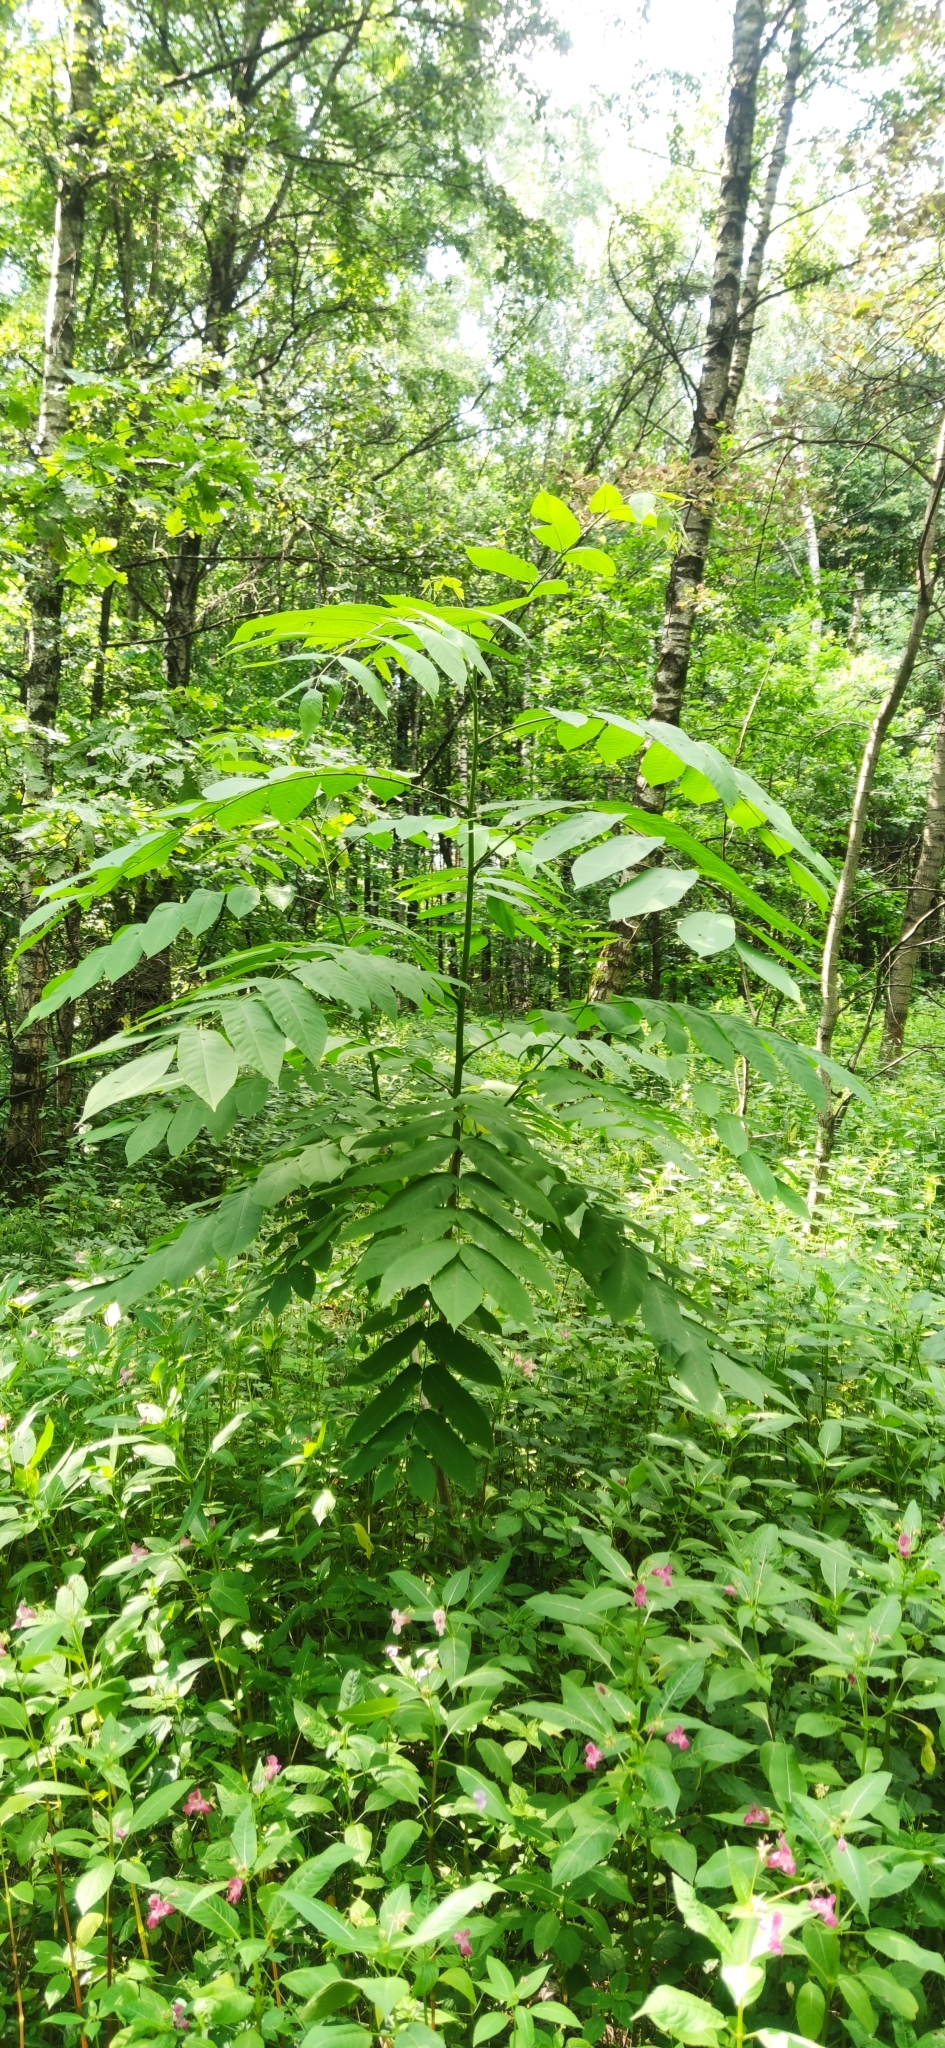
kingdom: Plantae
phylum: Tracheophyta
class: Magnoliopsida
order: Fagales
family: Juglandaceae
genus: Juglans
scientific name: Juglans mandshurica
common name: Manchurian walnut
